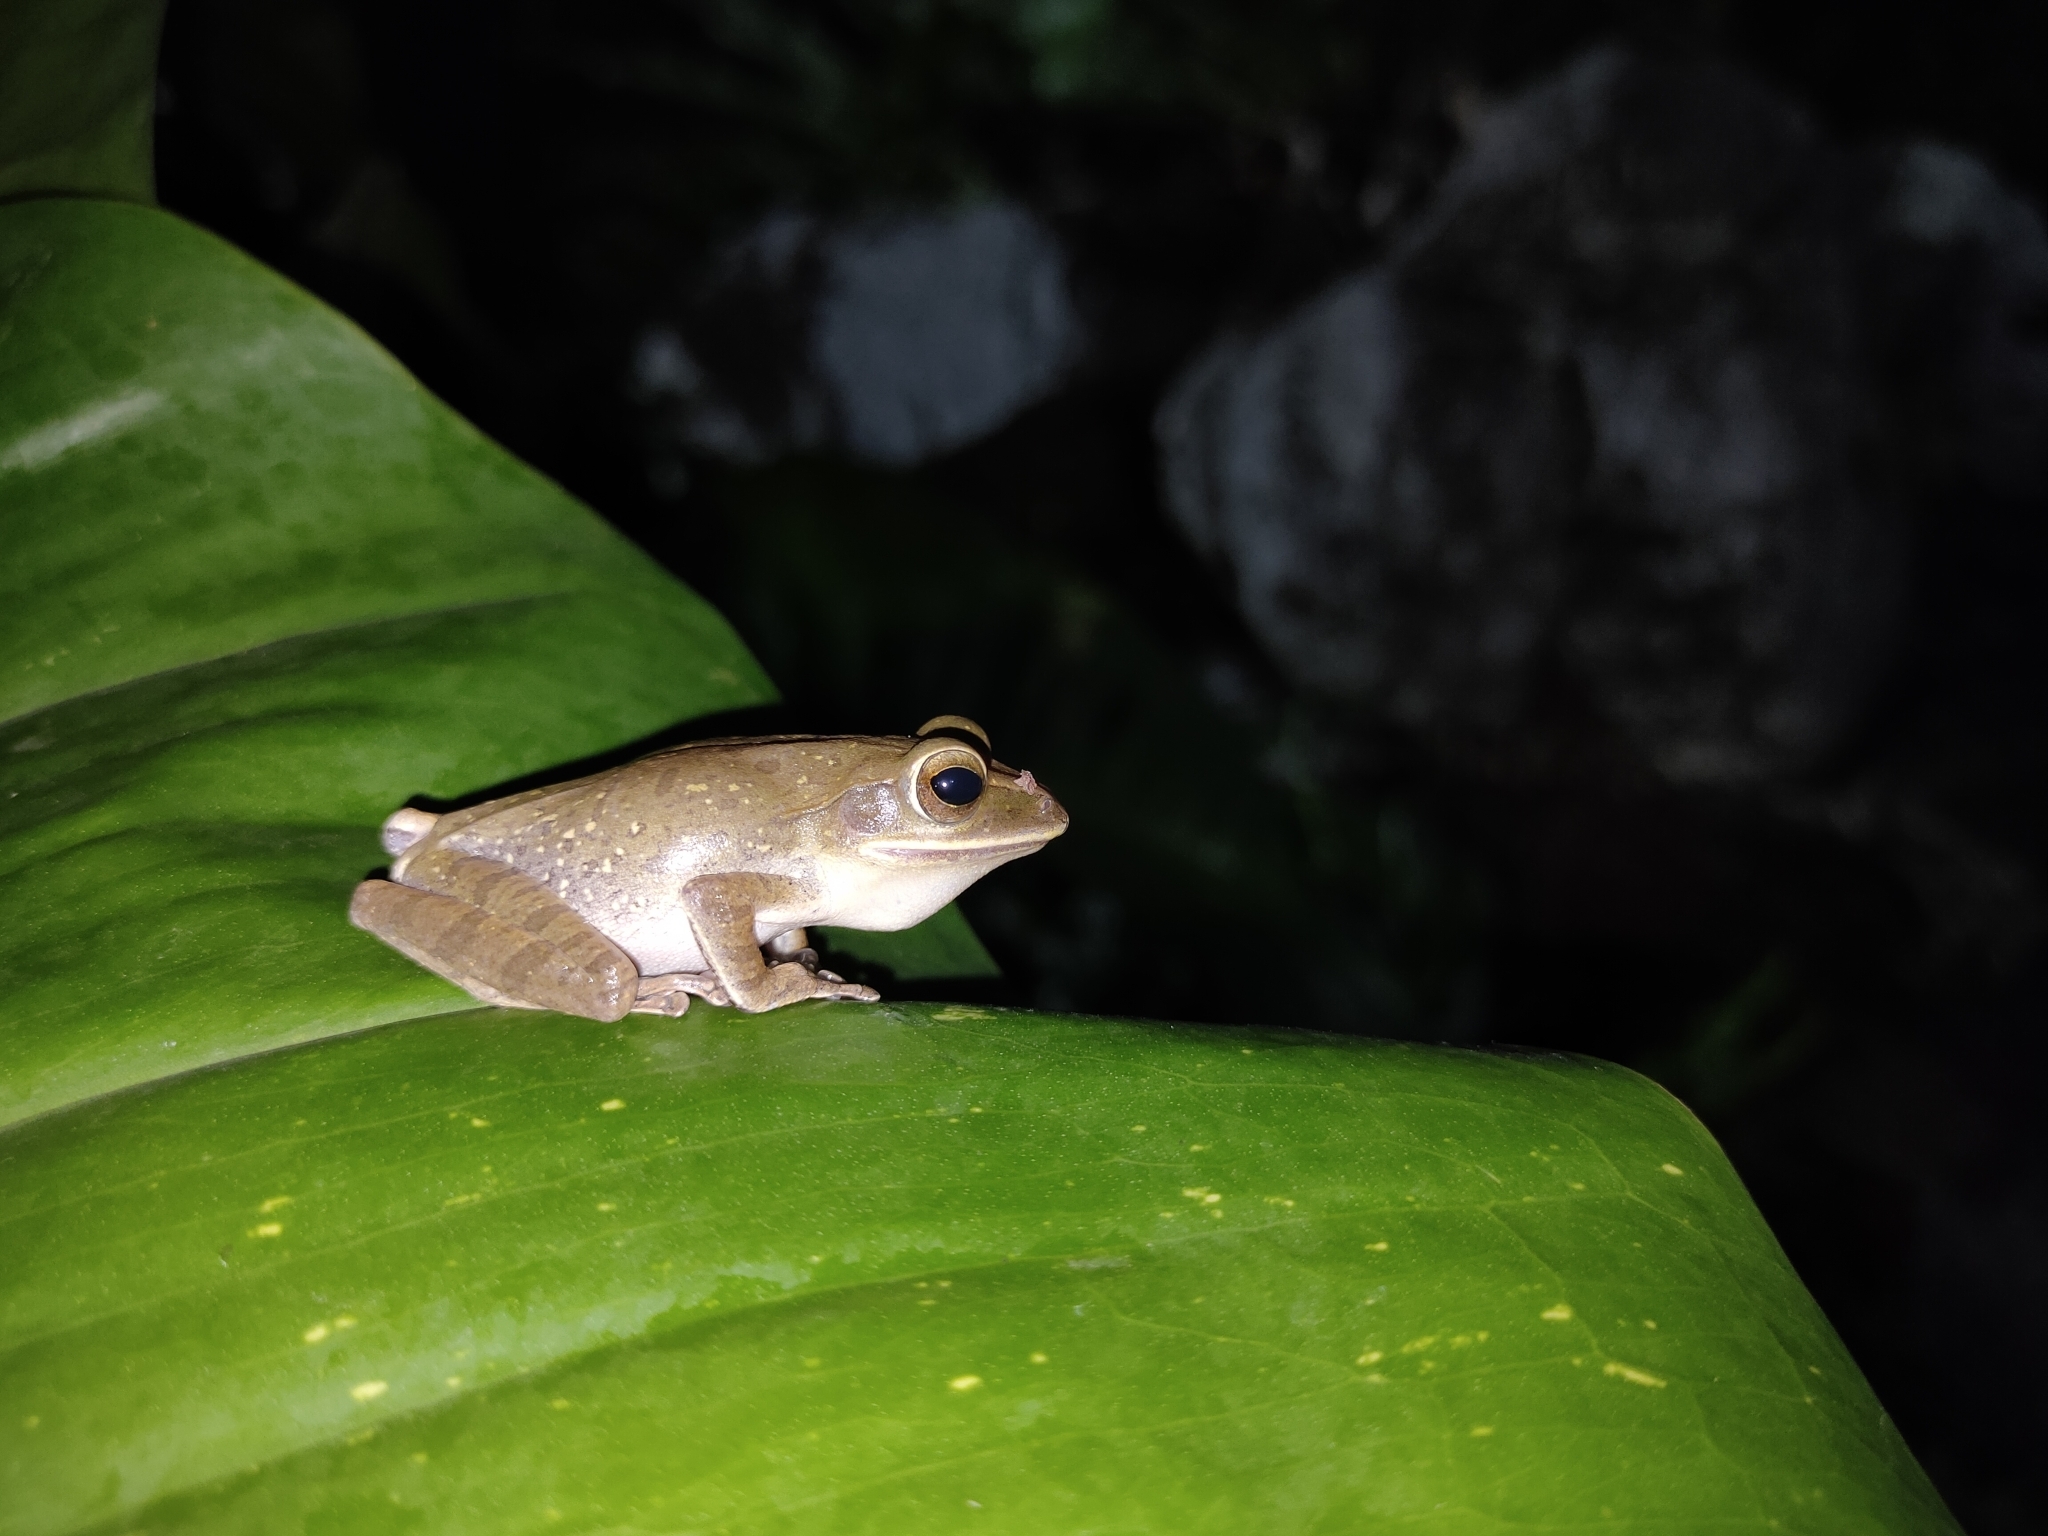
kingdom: Animalia
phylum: Chordata
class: Amphibia
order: Anura
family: Rhacophoridae
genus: Polypedates
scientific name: Polypedates megacephalus
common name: Hong kong whipping frog
